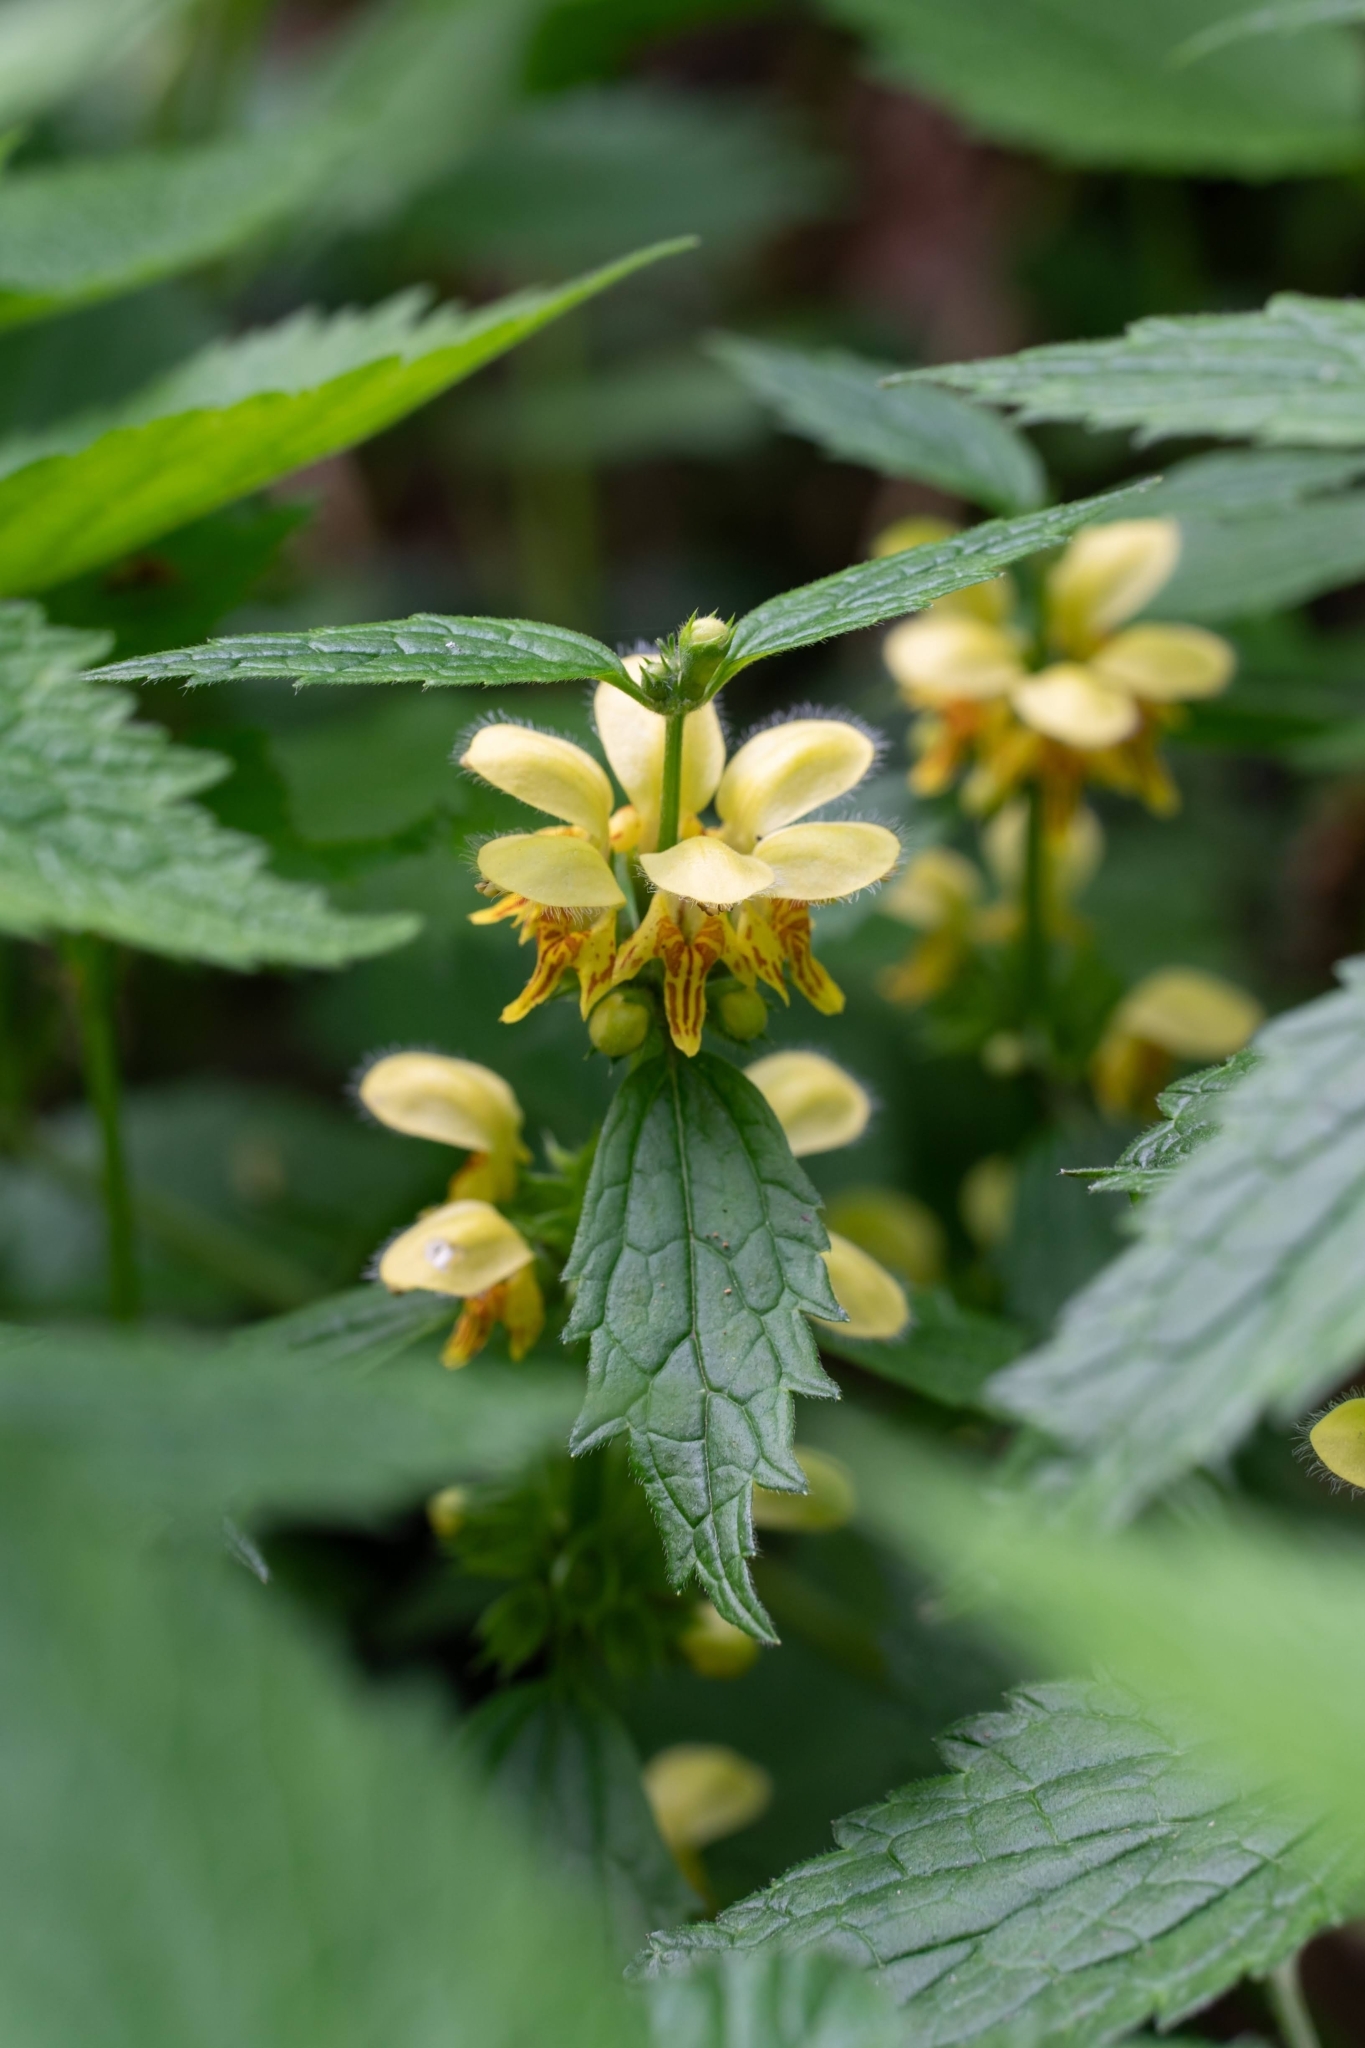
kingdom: Plantae
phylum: Tracheophyta
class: Magnoliopsida
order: Lamiales
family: Lamiaceae
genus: Lamium
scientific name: Lamium galeobdolon
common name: Yellow archangel
